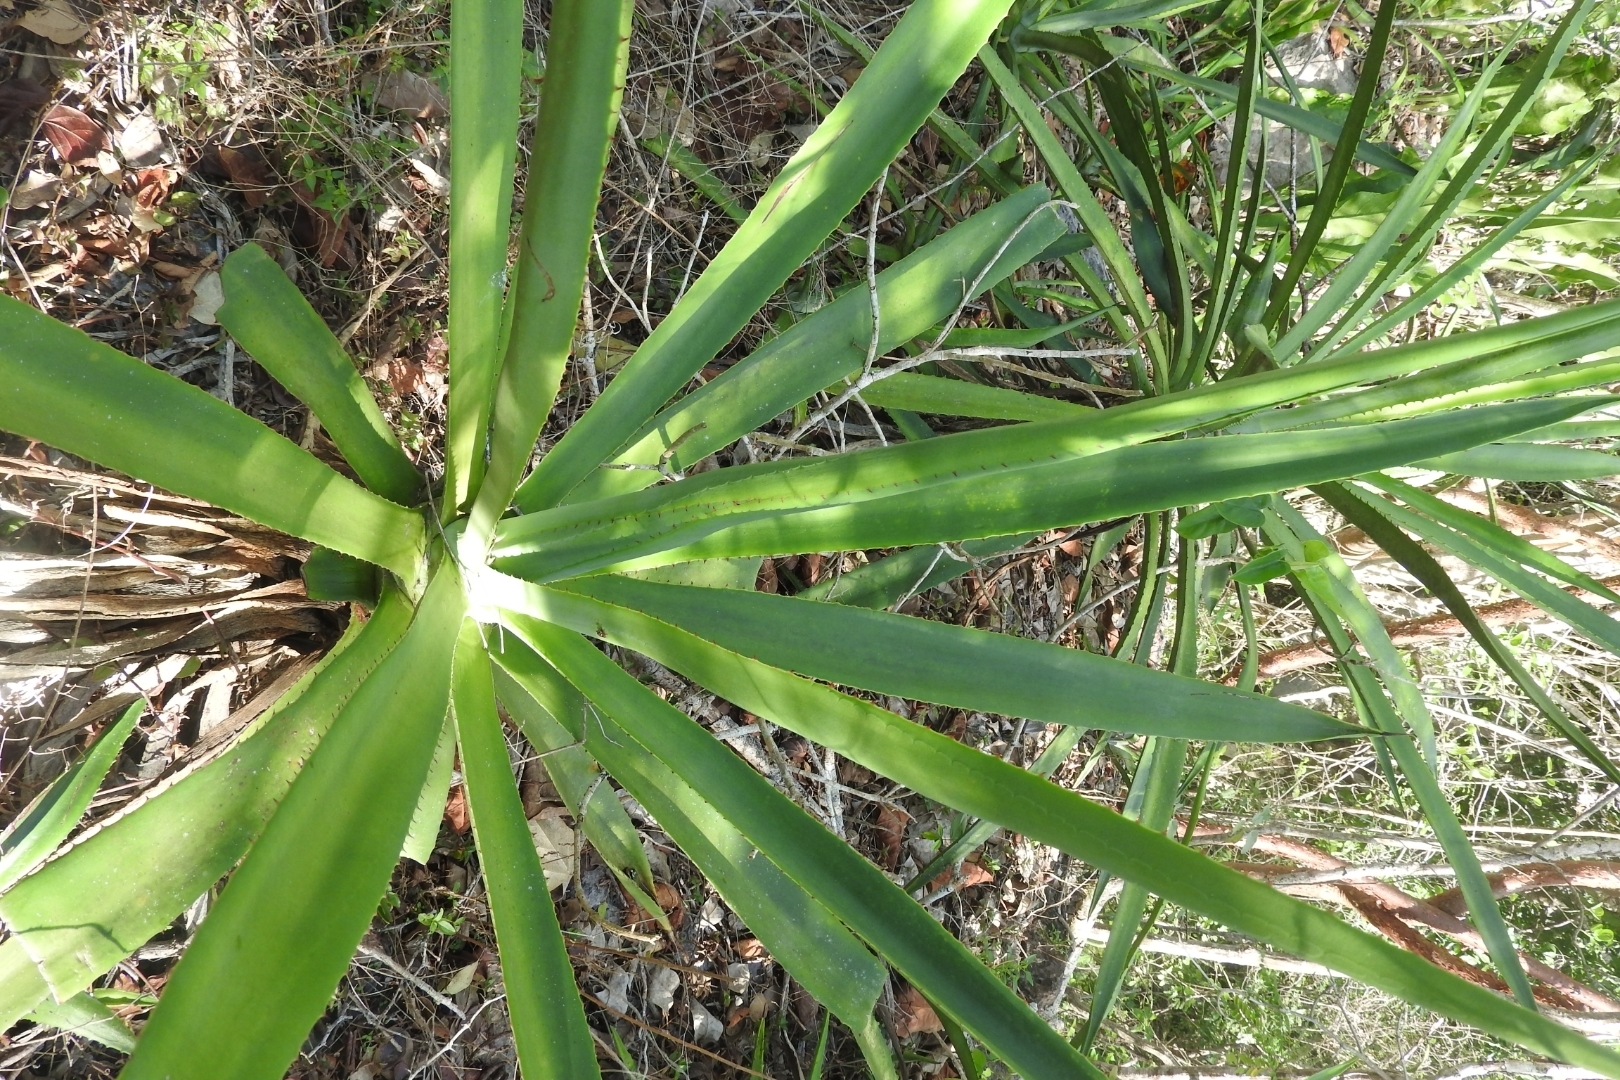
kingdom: Plantae
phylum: Tracheophyta
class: Liliopsida
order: Asparagales
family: Asparagaceae
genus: Agave
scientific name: Agave vivipara
